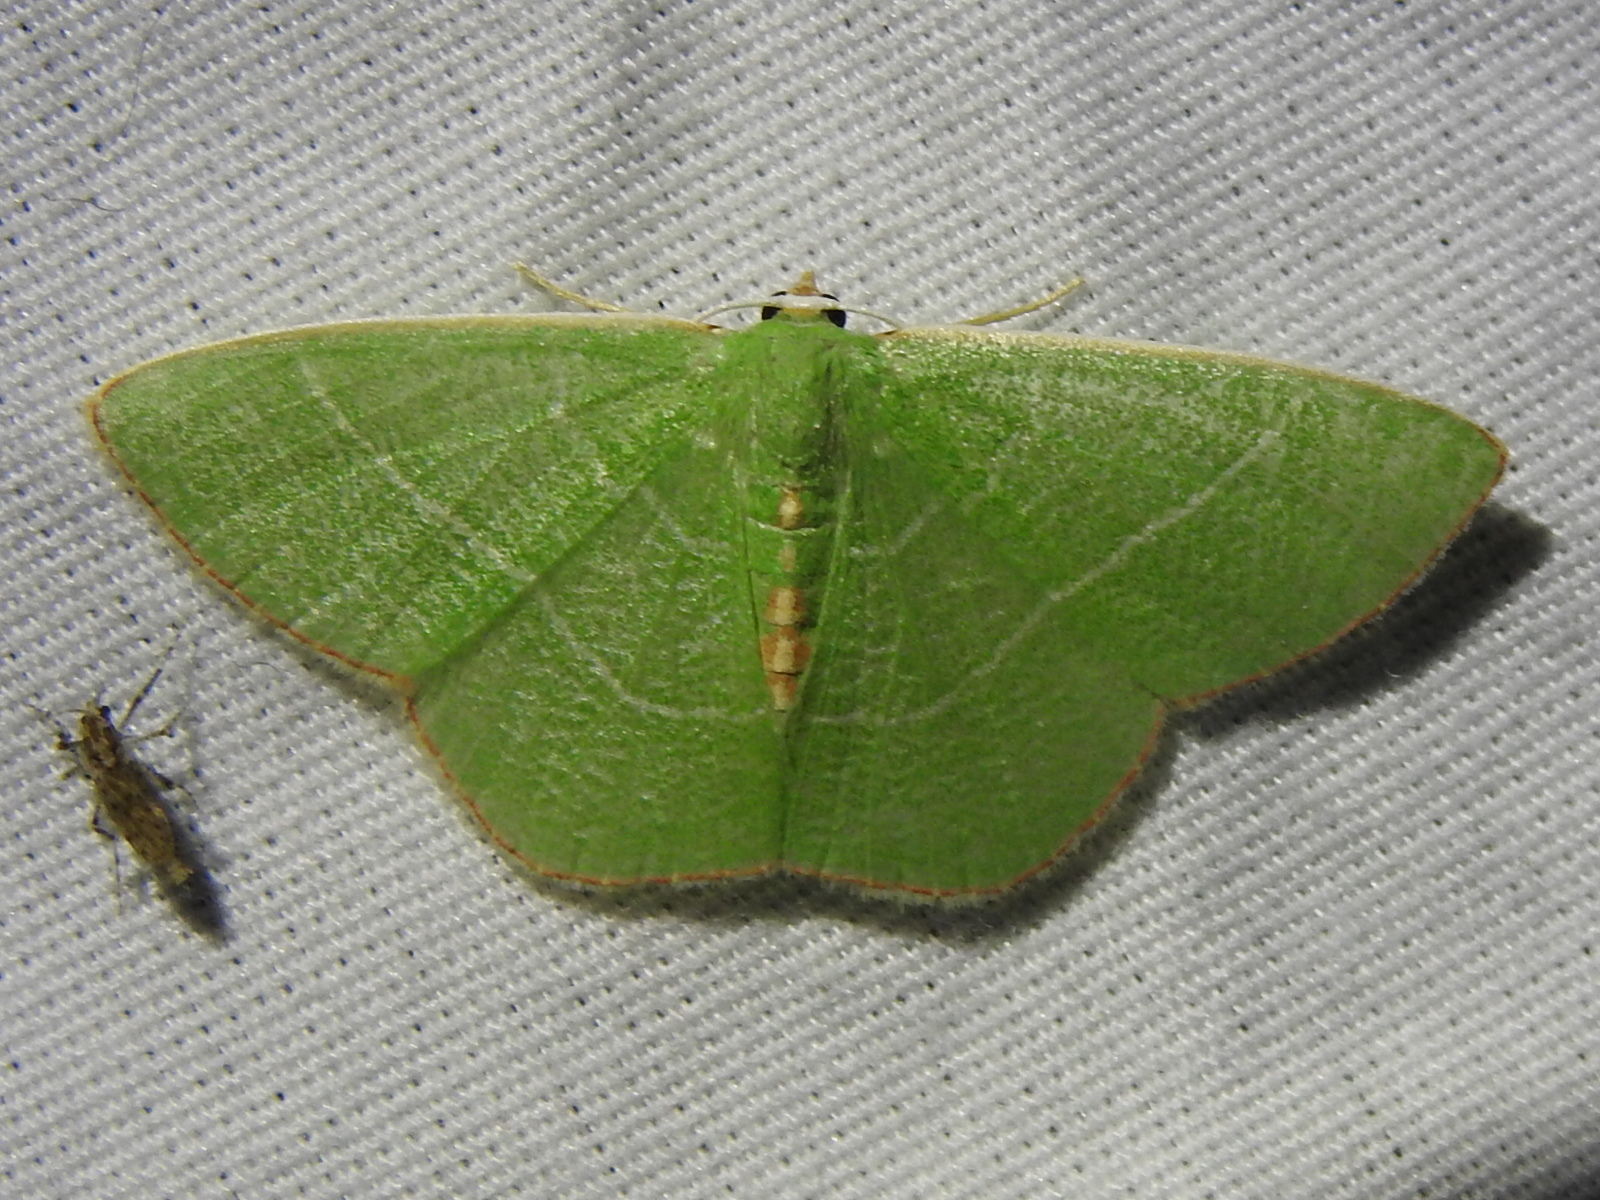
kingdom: Animalia
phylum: Arthropoda
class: Insecta
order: Lepidoptera
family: Geometridae
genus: Nemoria
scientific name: Nemoria bistriaria
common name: Red-fringed emerald
